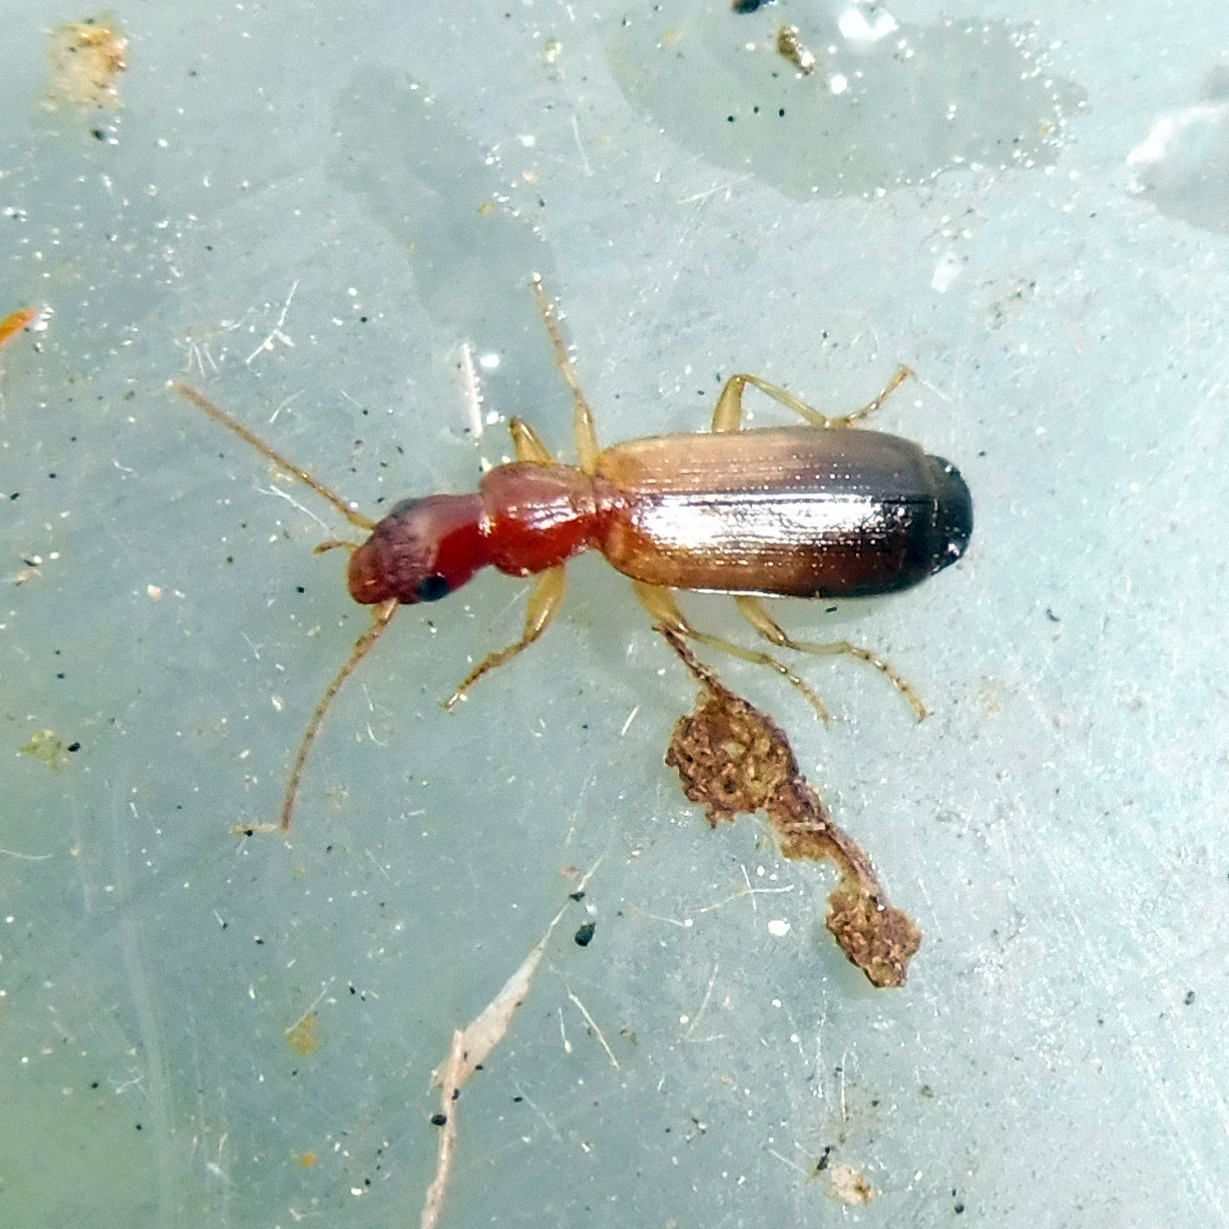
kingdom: Animalia
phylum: Arthropoda
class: Insecta
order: Coleoptera
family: Carabidae
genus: Paradromius
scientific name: Paradromius linearis
